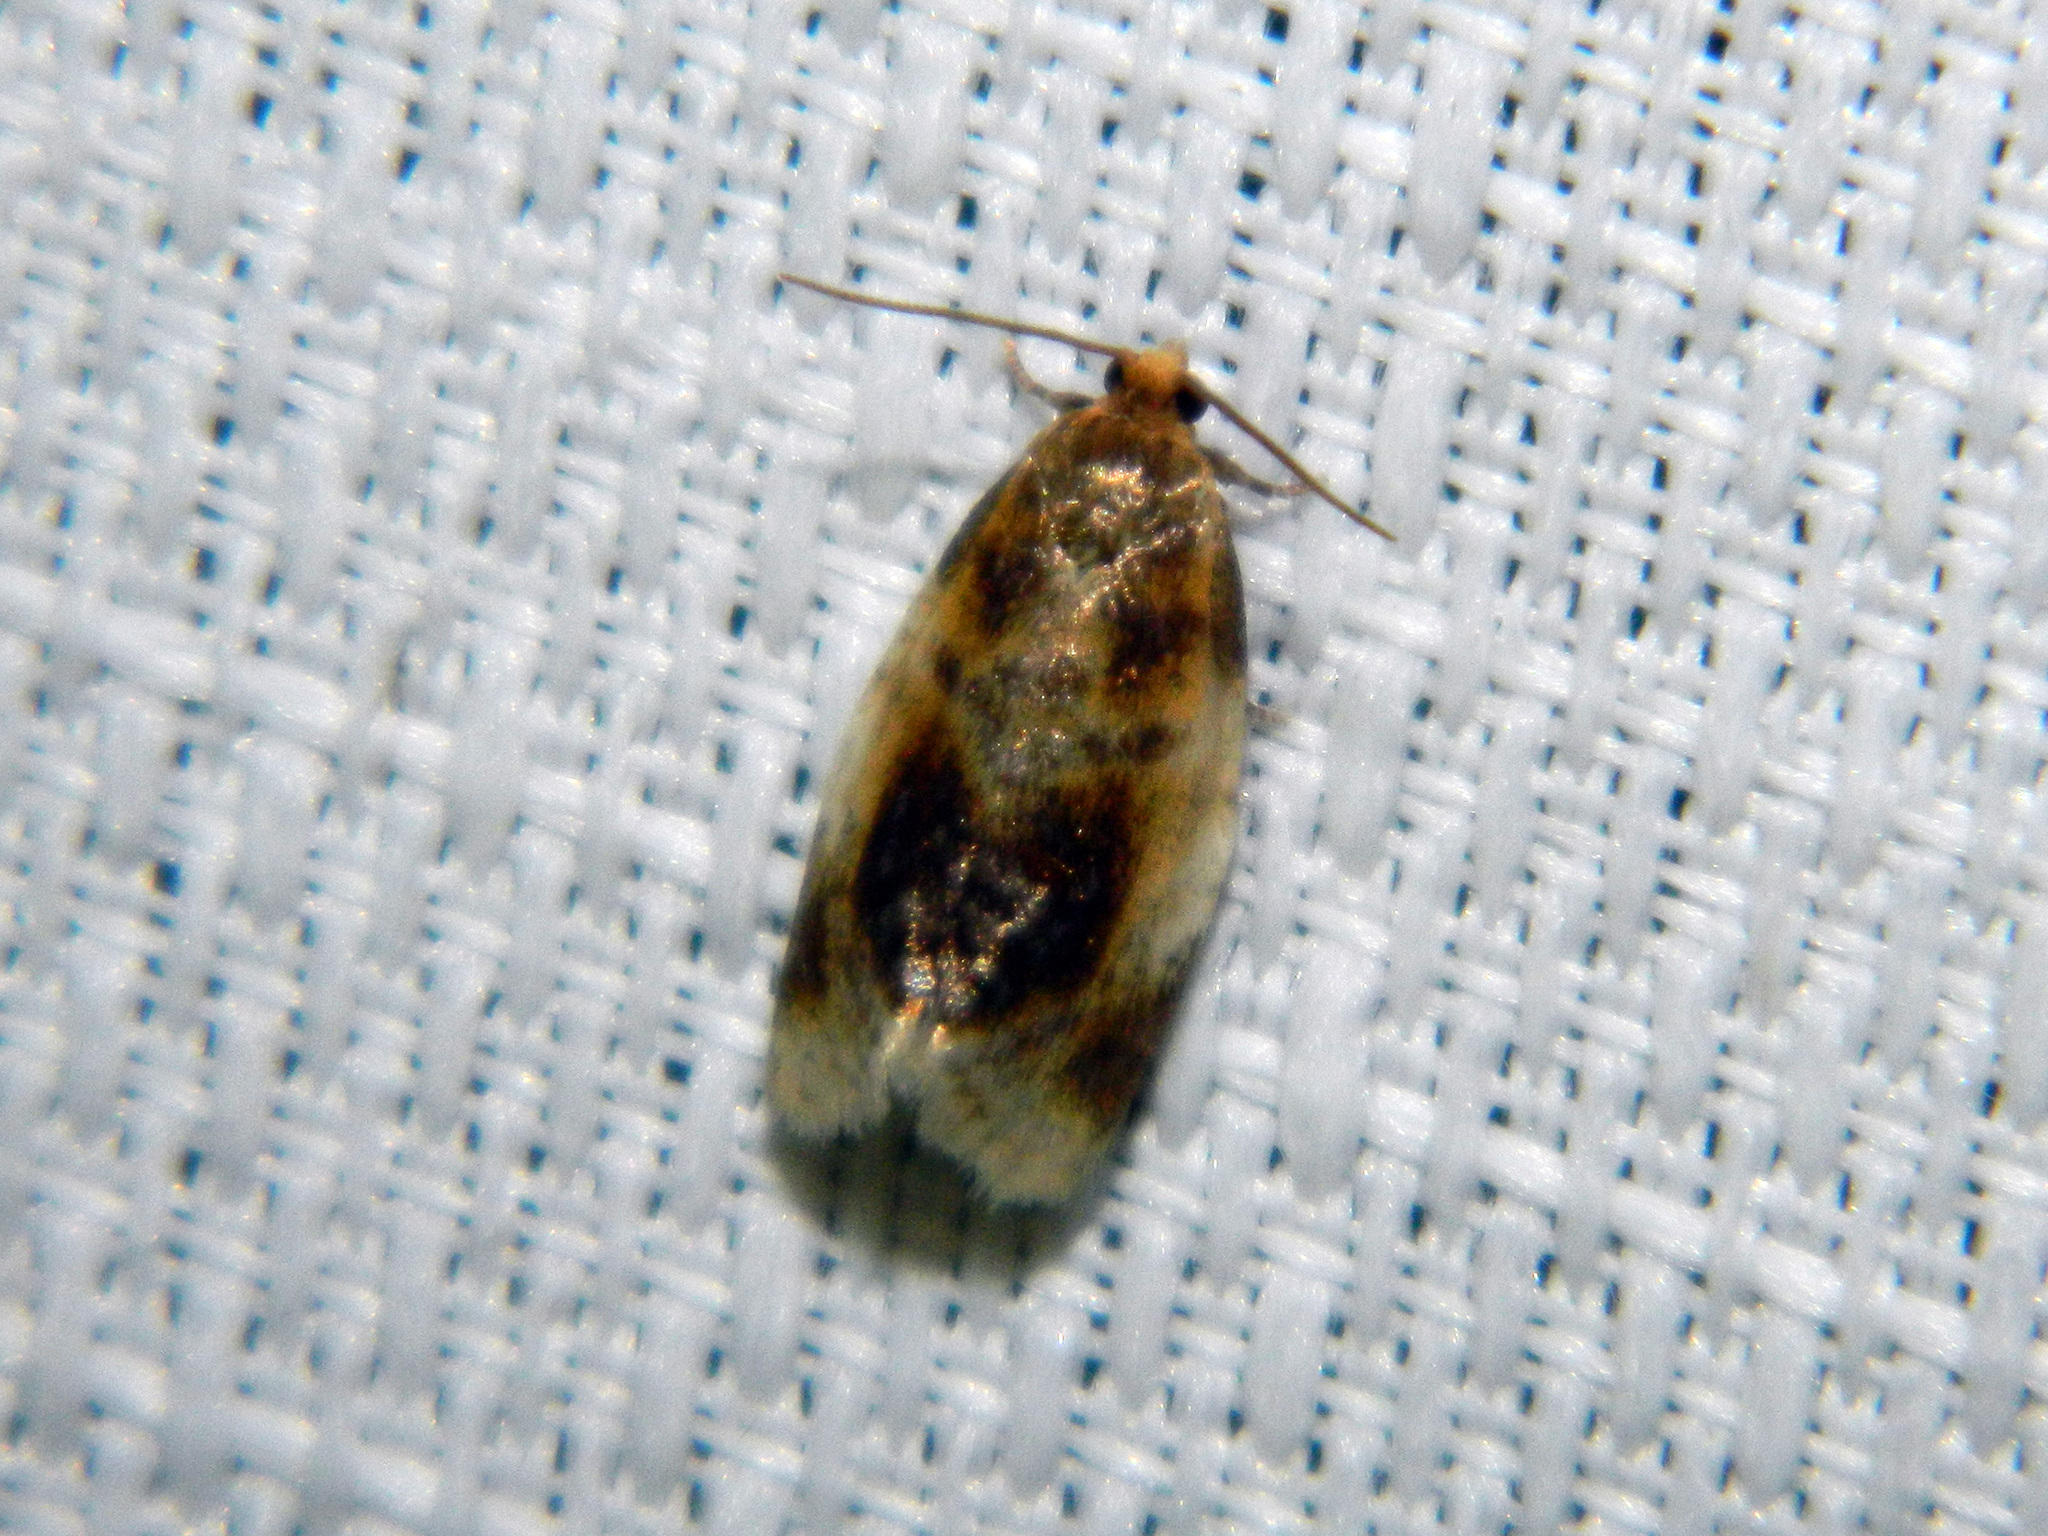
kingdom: Animalia
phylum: Arthropoda
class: Insecta
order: Lepidoptera
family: Tortricidae
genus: Clepsis
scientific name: Clepsis melaleucanus
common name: American apple tortrix
